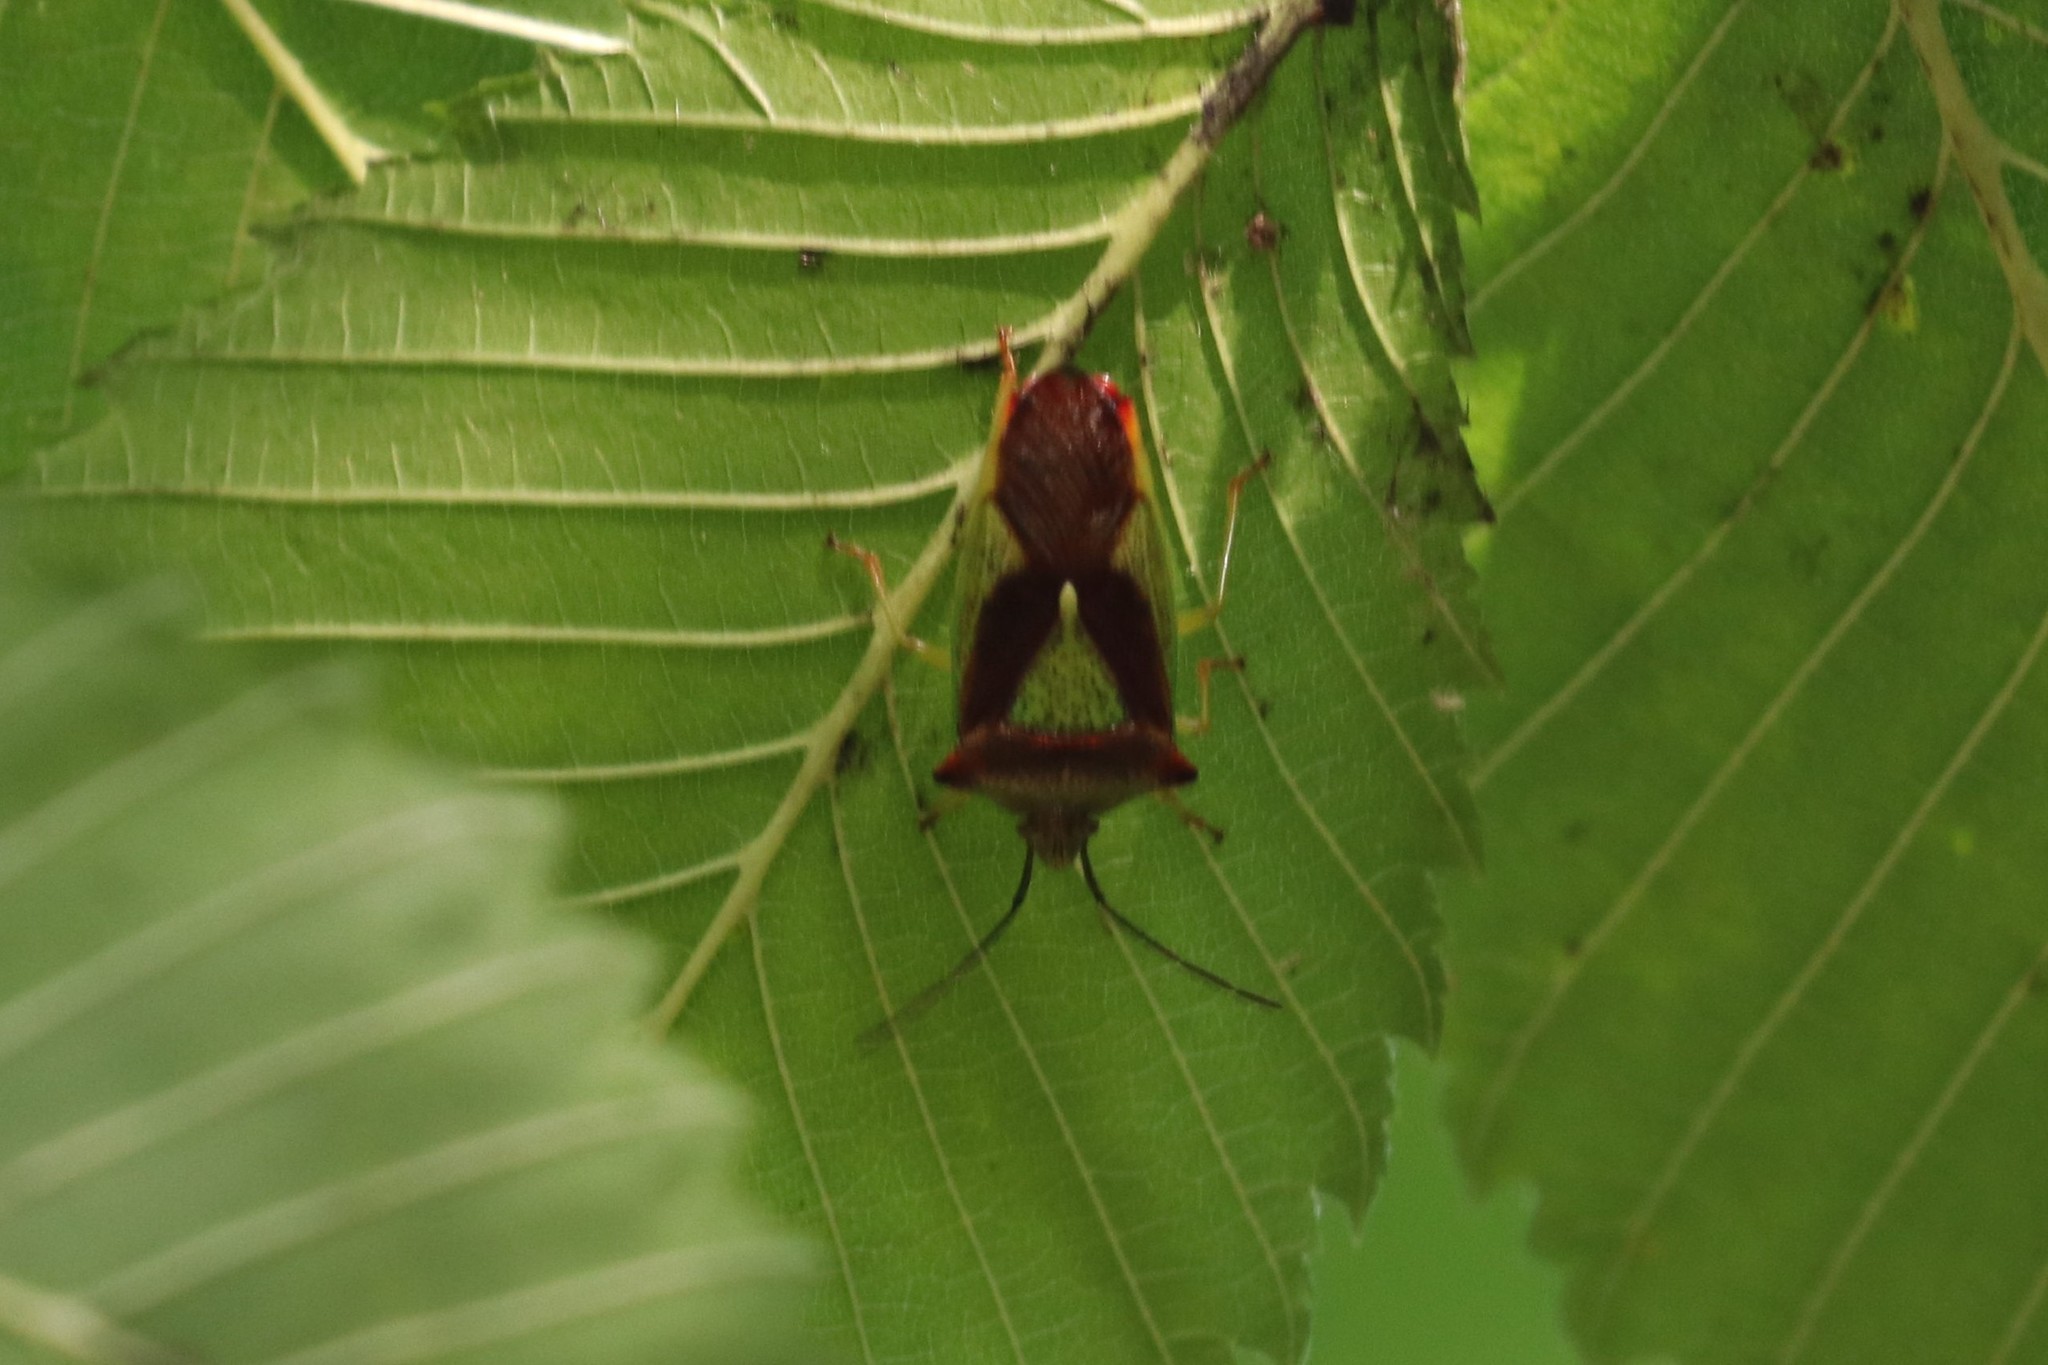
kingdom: Animalia
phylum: Arthropoda
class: Insecta
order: Hemiptera
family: Acanthosomatidae
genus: Acanthosoma
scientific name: Acanthosoma haemorrhoidale
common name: Hawthorn shieldbug
